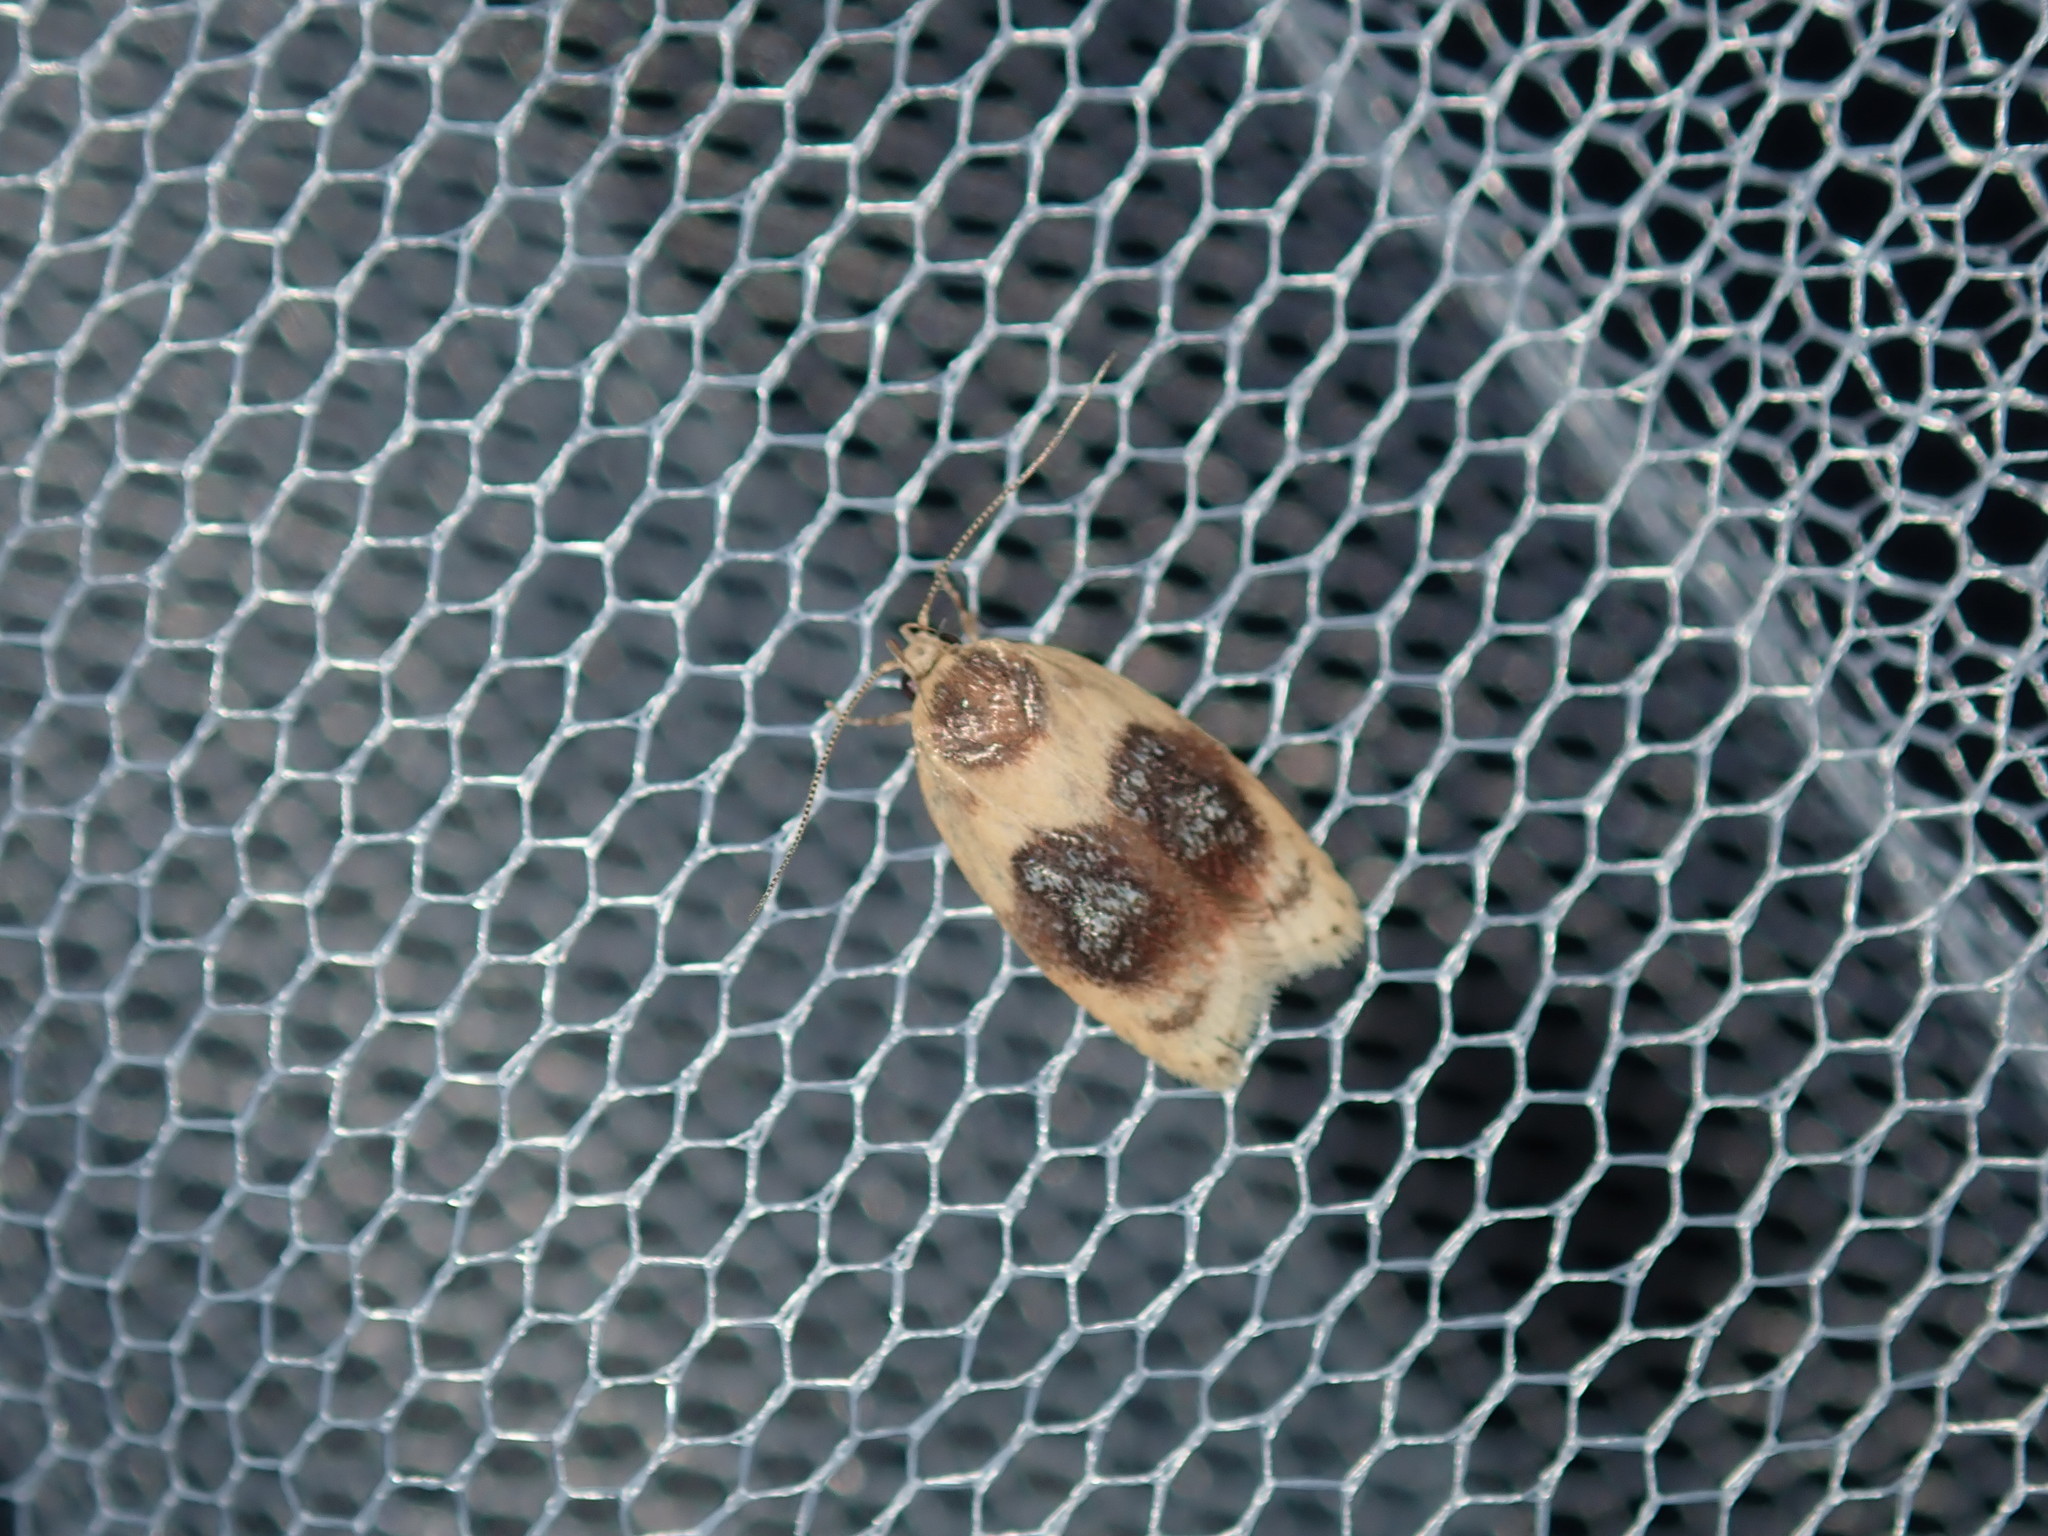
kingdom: Animalia
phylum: Arthropoda
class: Insecta
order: Lepidoptera
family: Oecophoridae
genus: Garrha
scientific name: Garrha ocellifera
